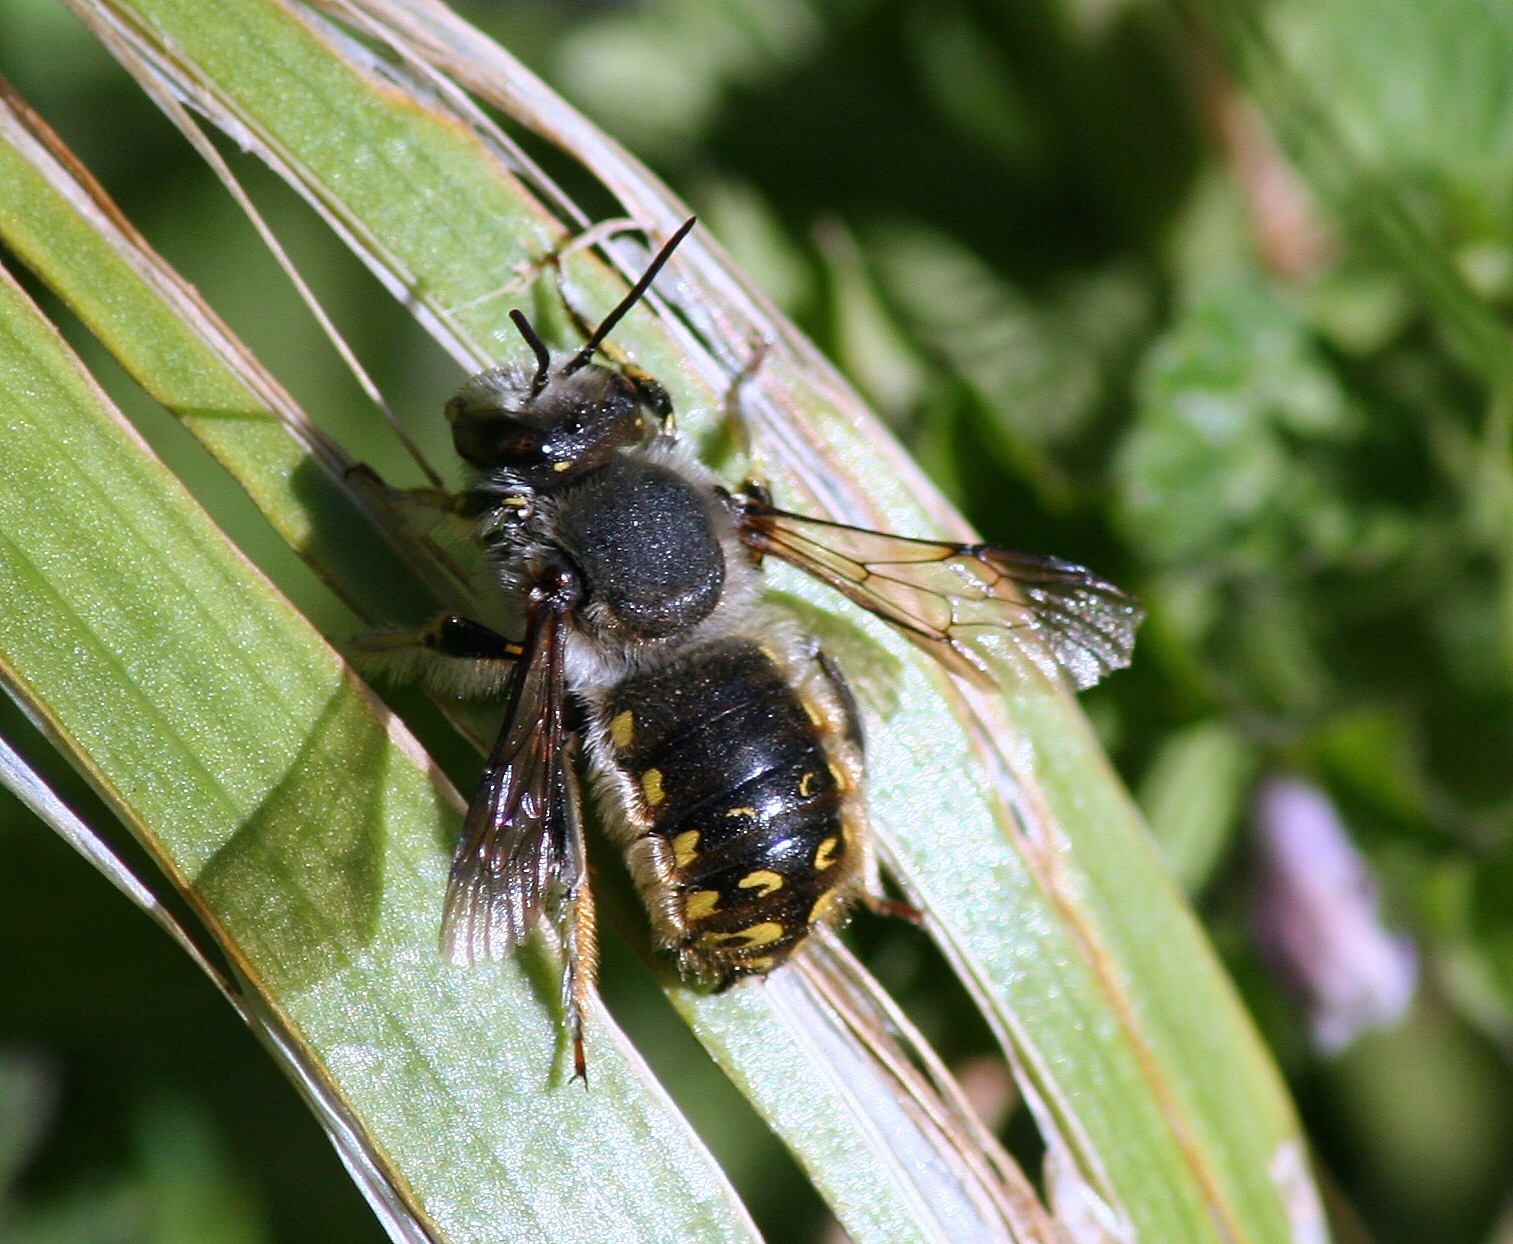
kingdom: Animalia
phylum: Arthropoda
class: Insecta
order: Hymenoptera
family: Megachilidae
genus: Anthidium
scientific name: Anthidium manicatum
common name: Wool carder bee
